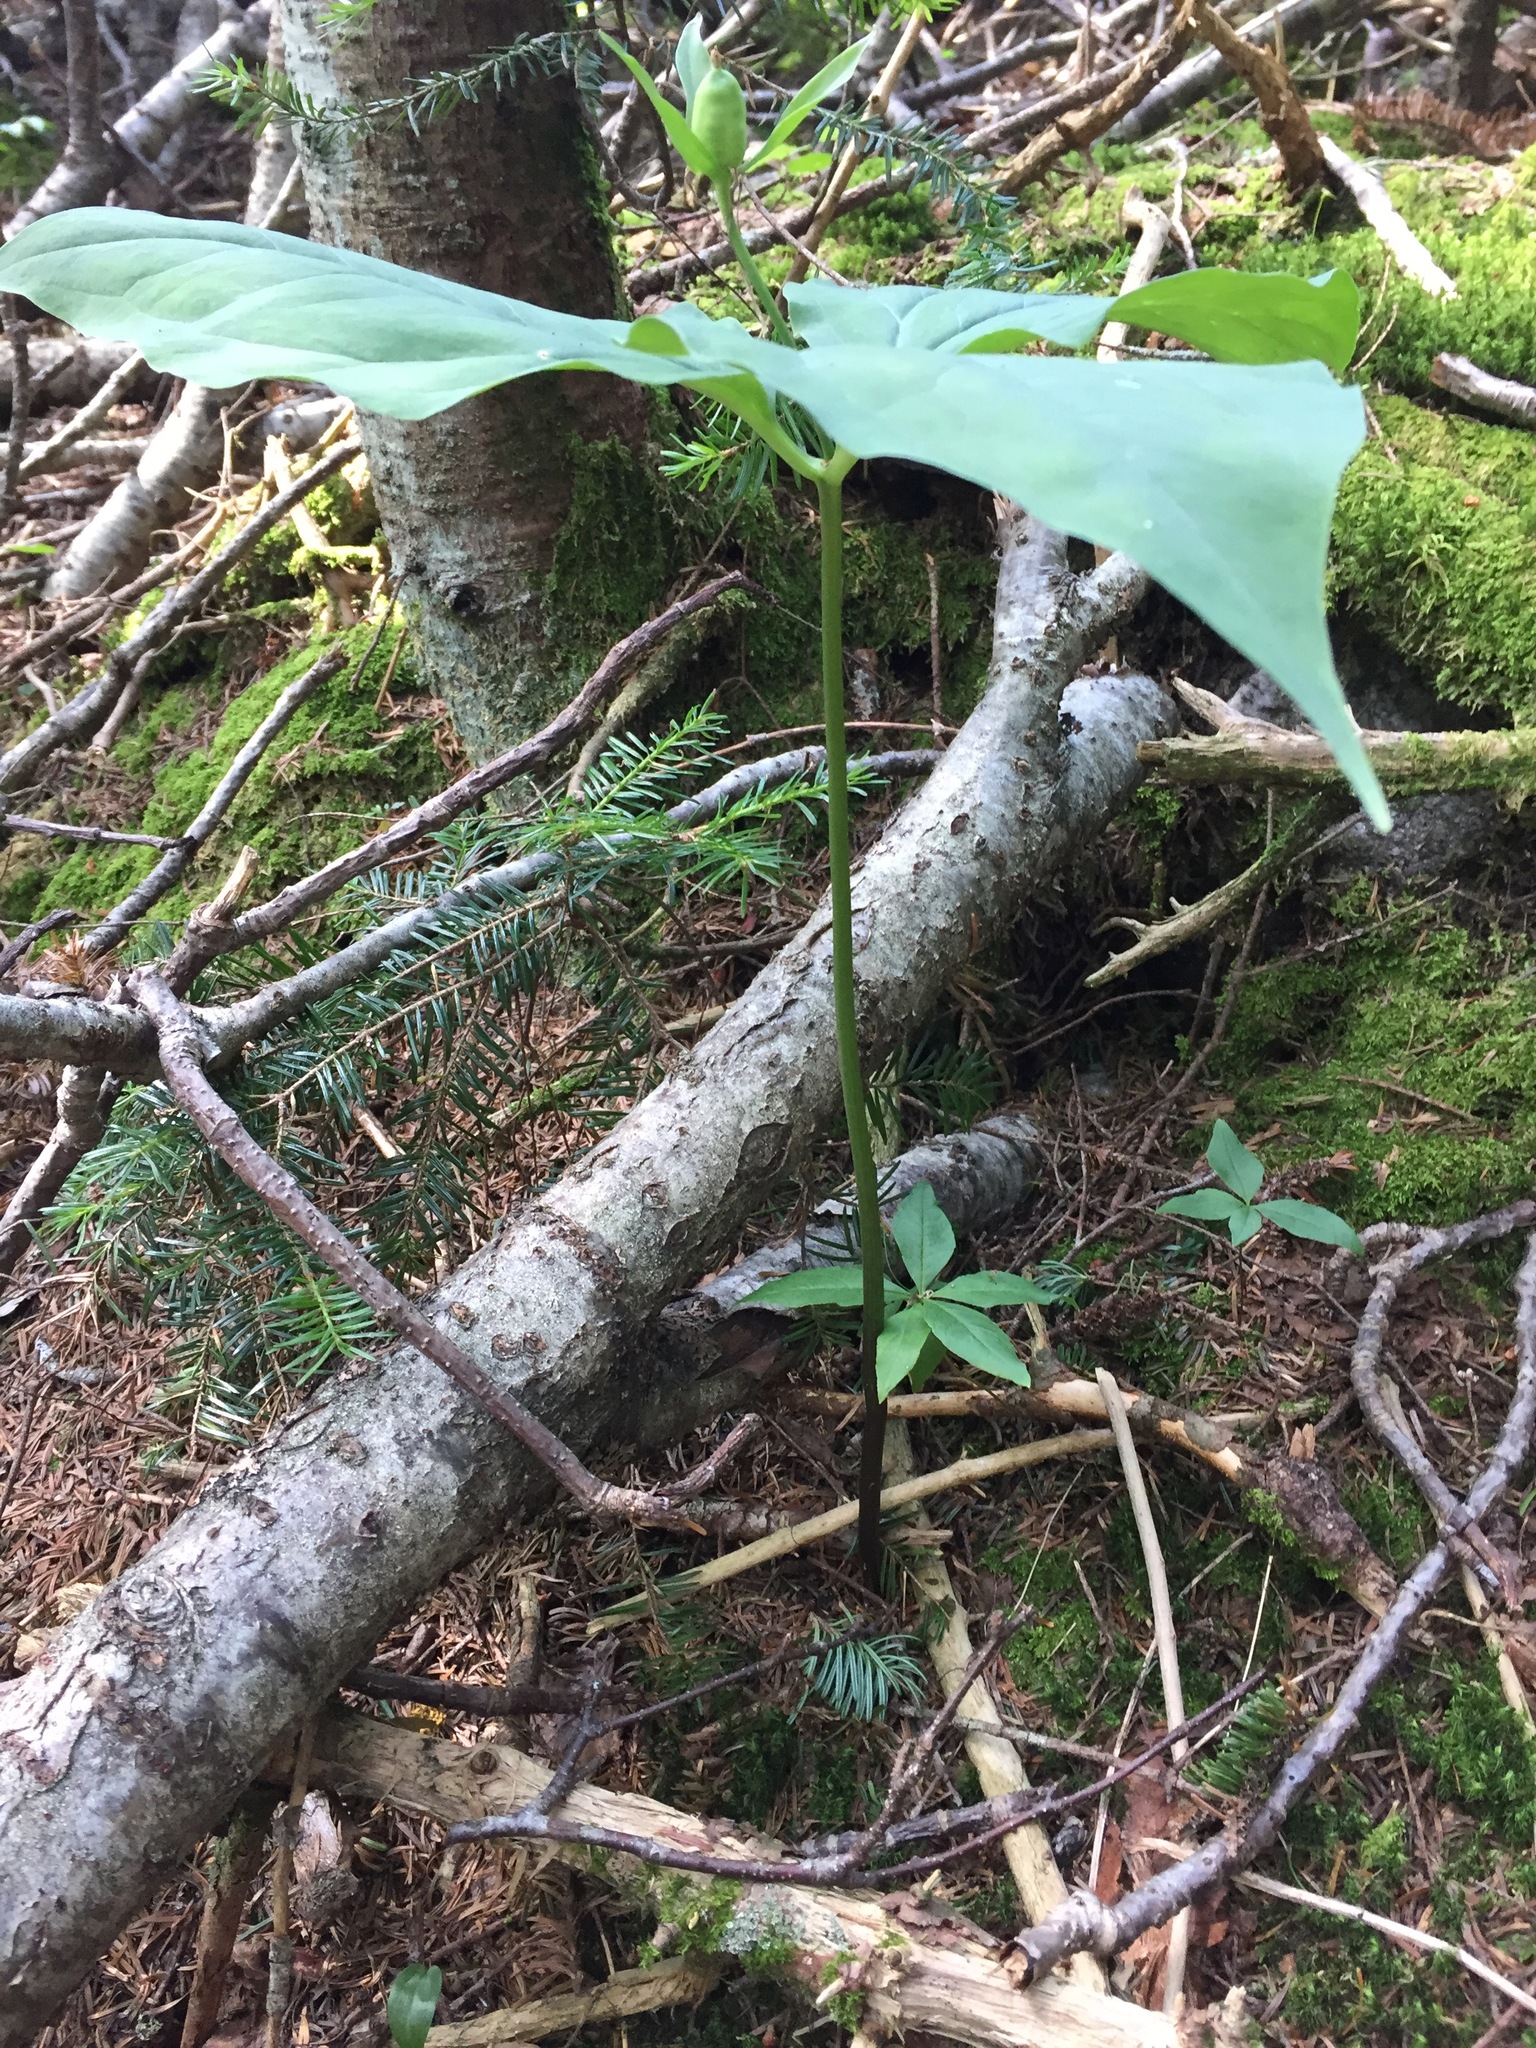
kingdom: Plantae
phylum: Tracheophyta
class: Liliopsida
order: Liliales
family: Melanthiaceae
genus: Trillium
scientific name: Trillium undulatum
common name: Paint trillium
